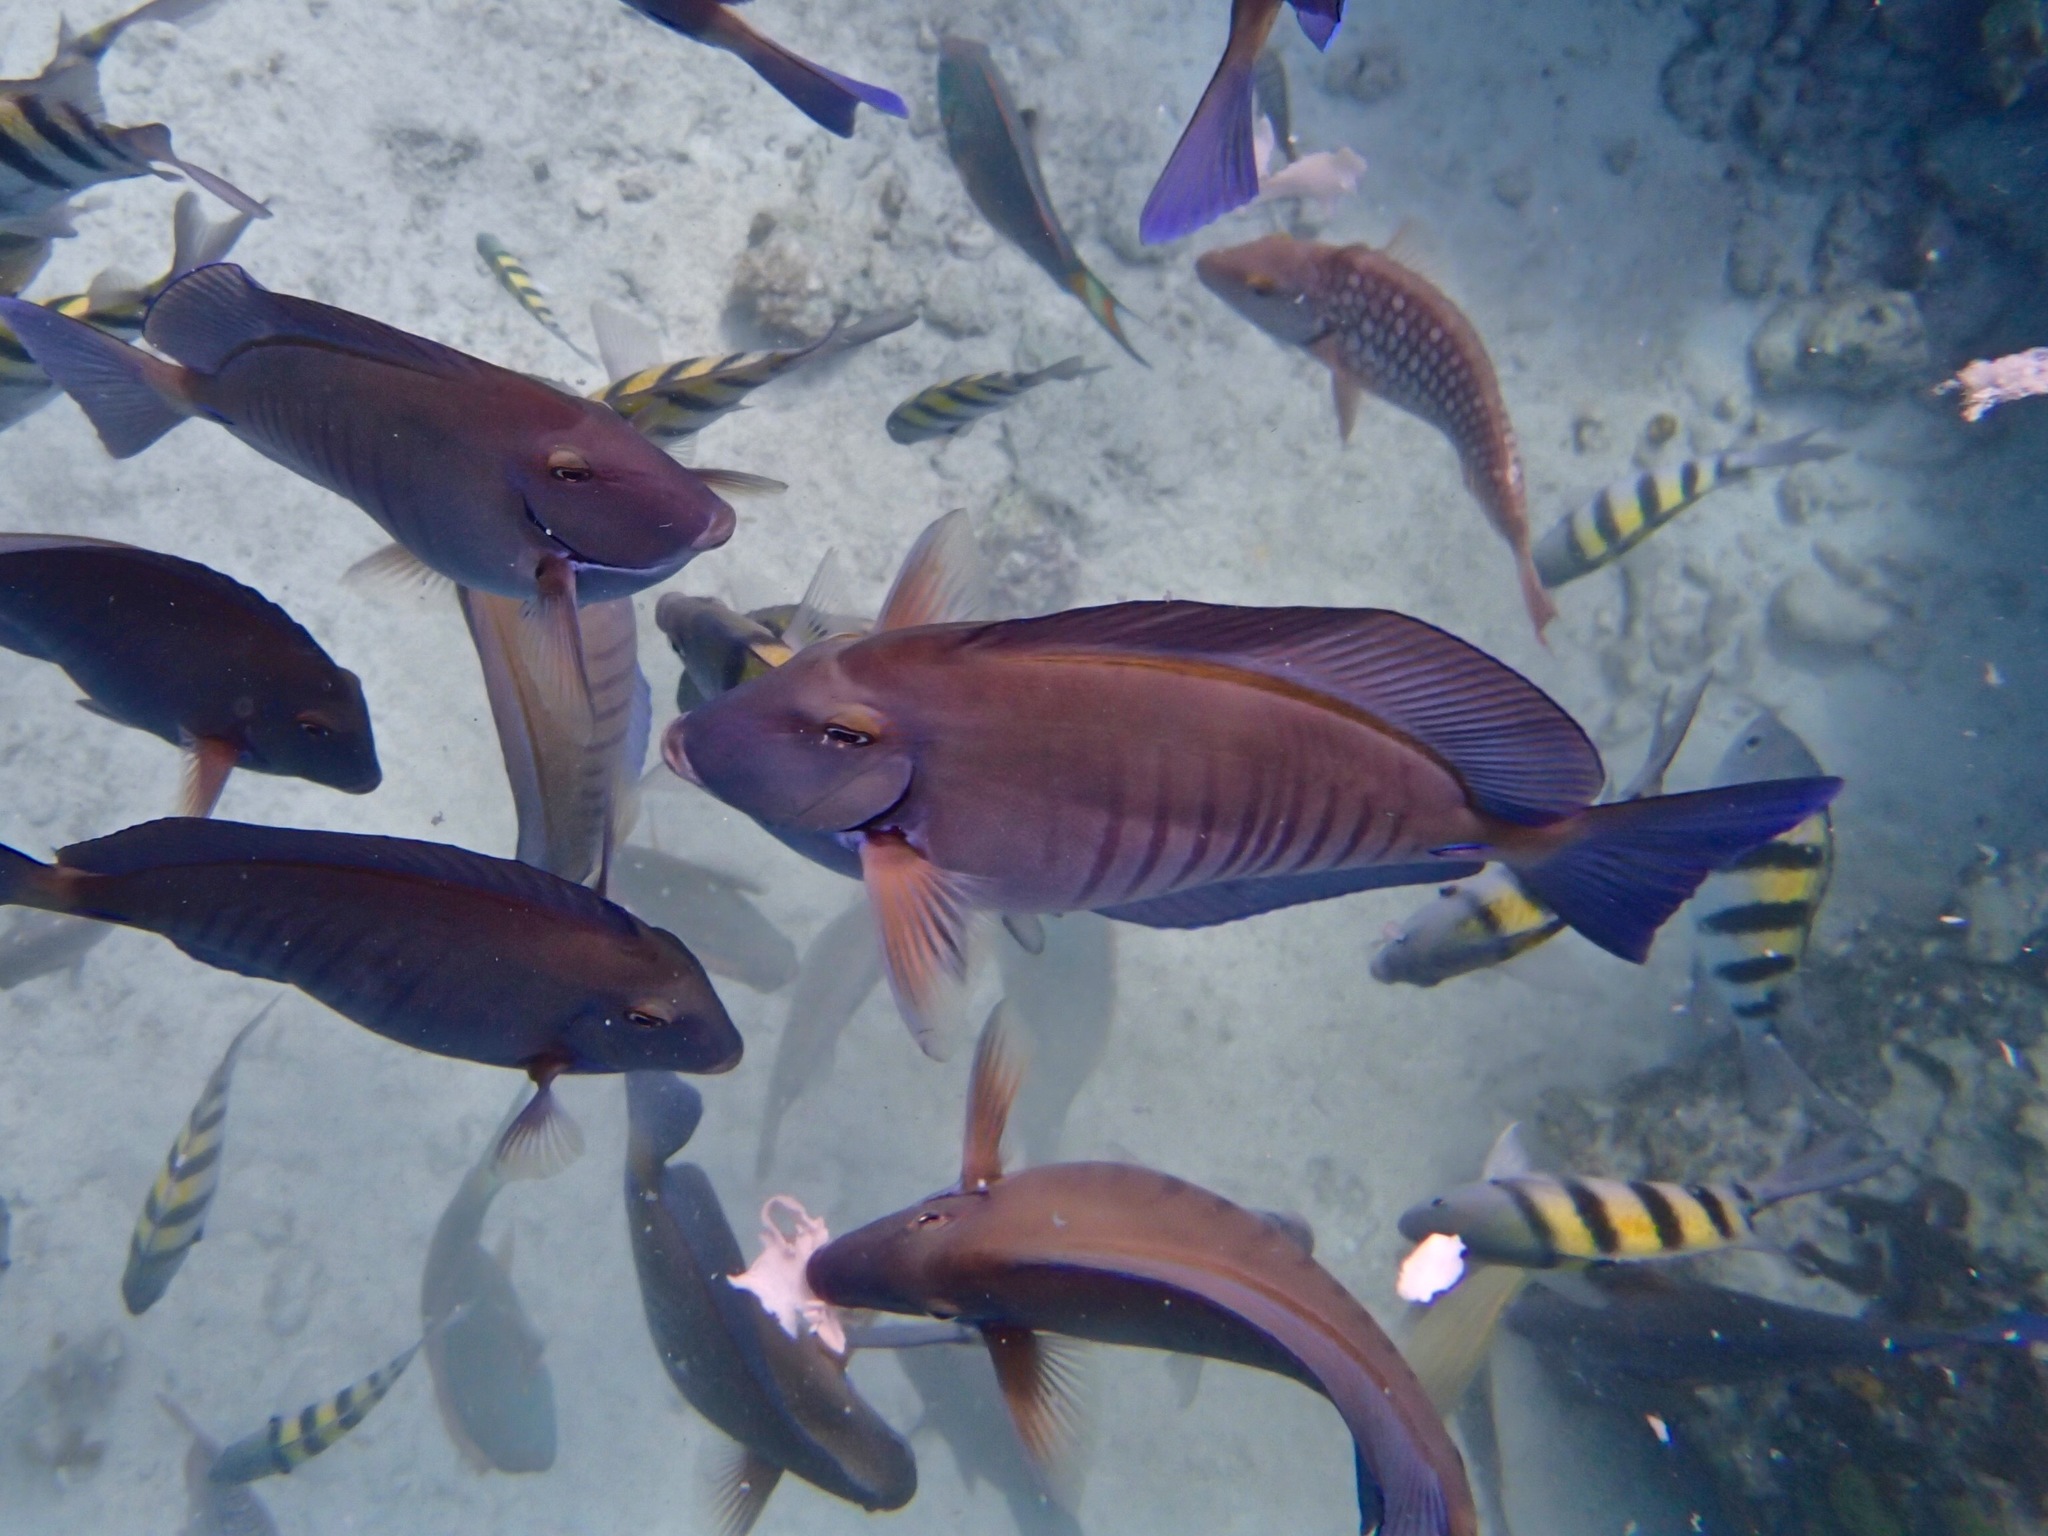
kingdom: Animalia
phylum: Chordata
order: Perciformes
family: Acanthuridae
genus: Acanthurus
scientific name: Acanthurus chirurgus
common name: Doctorfish
